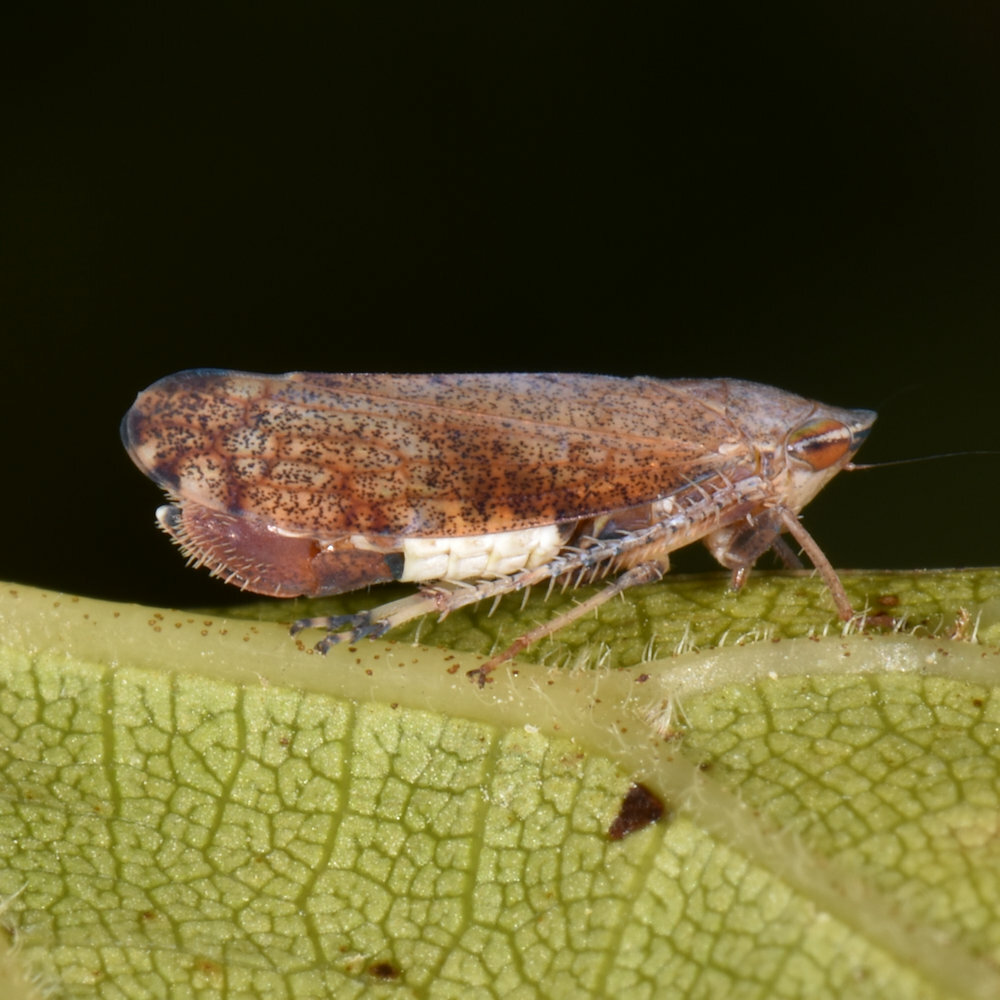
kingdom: Animalia
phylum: Arthropoda
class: Insecta
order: Hemiptera
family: Cicadellidae
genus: Fieberiella
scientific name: Fieberiella florii
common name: Flor’s leafhopper
